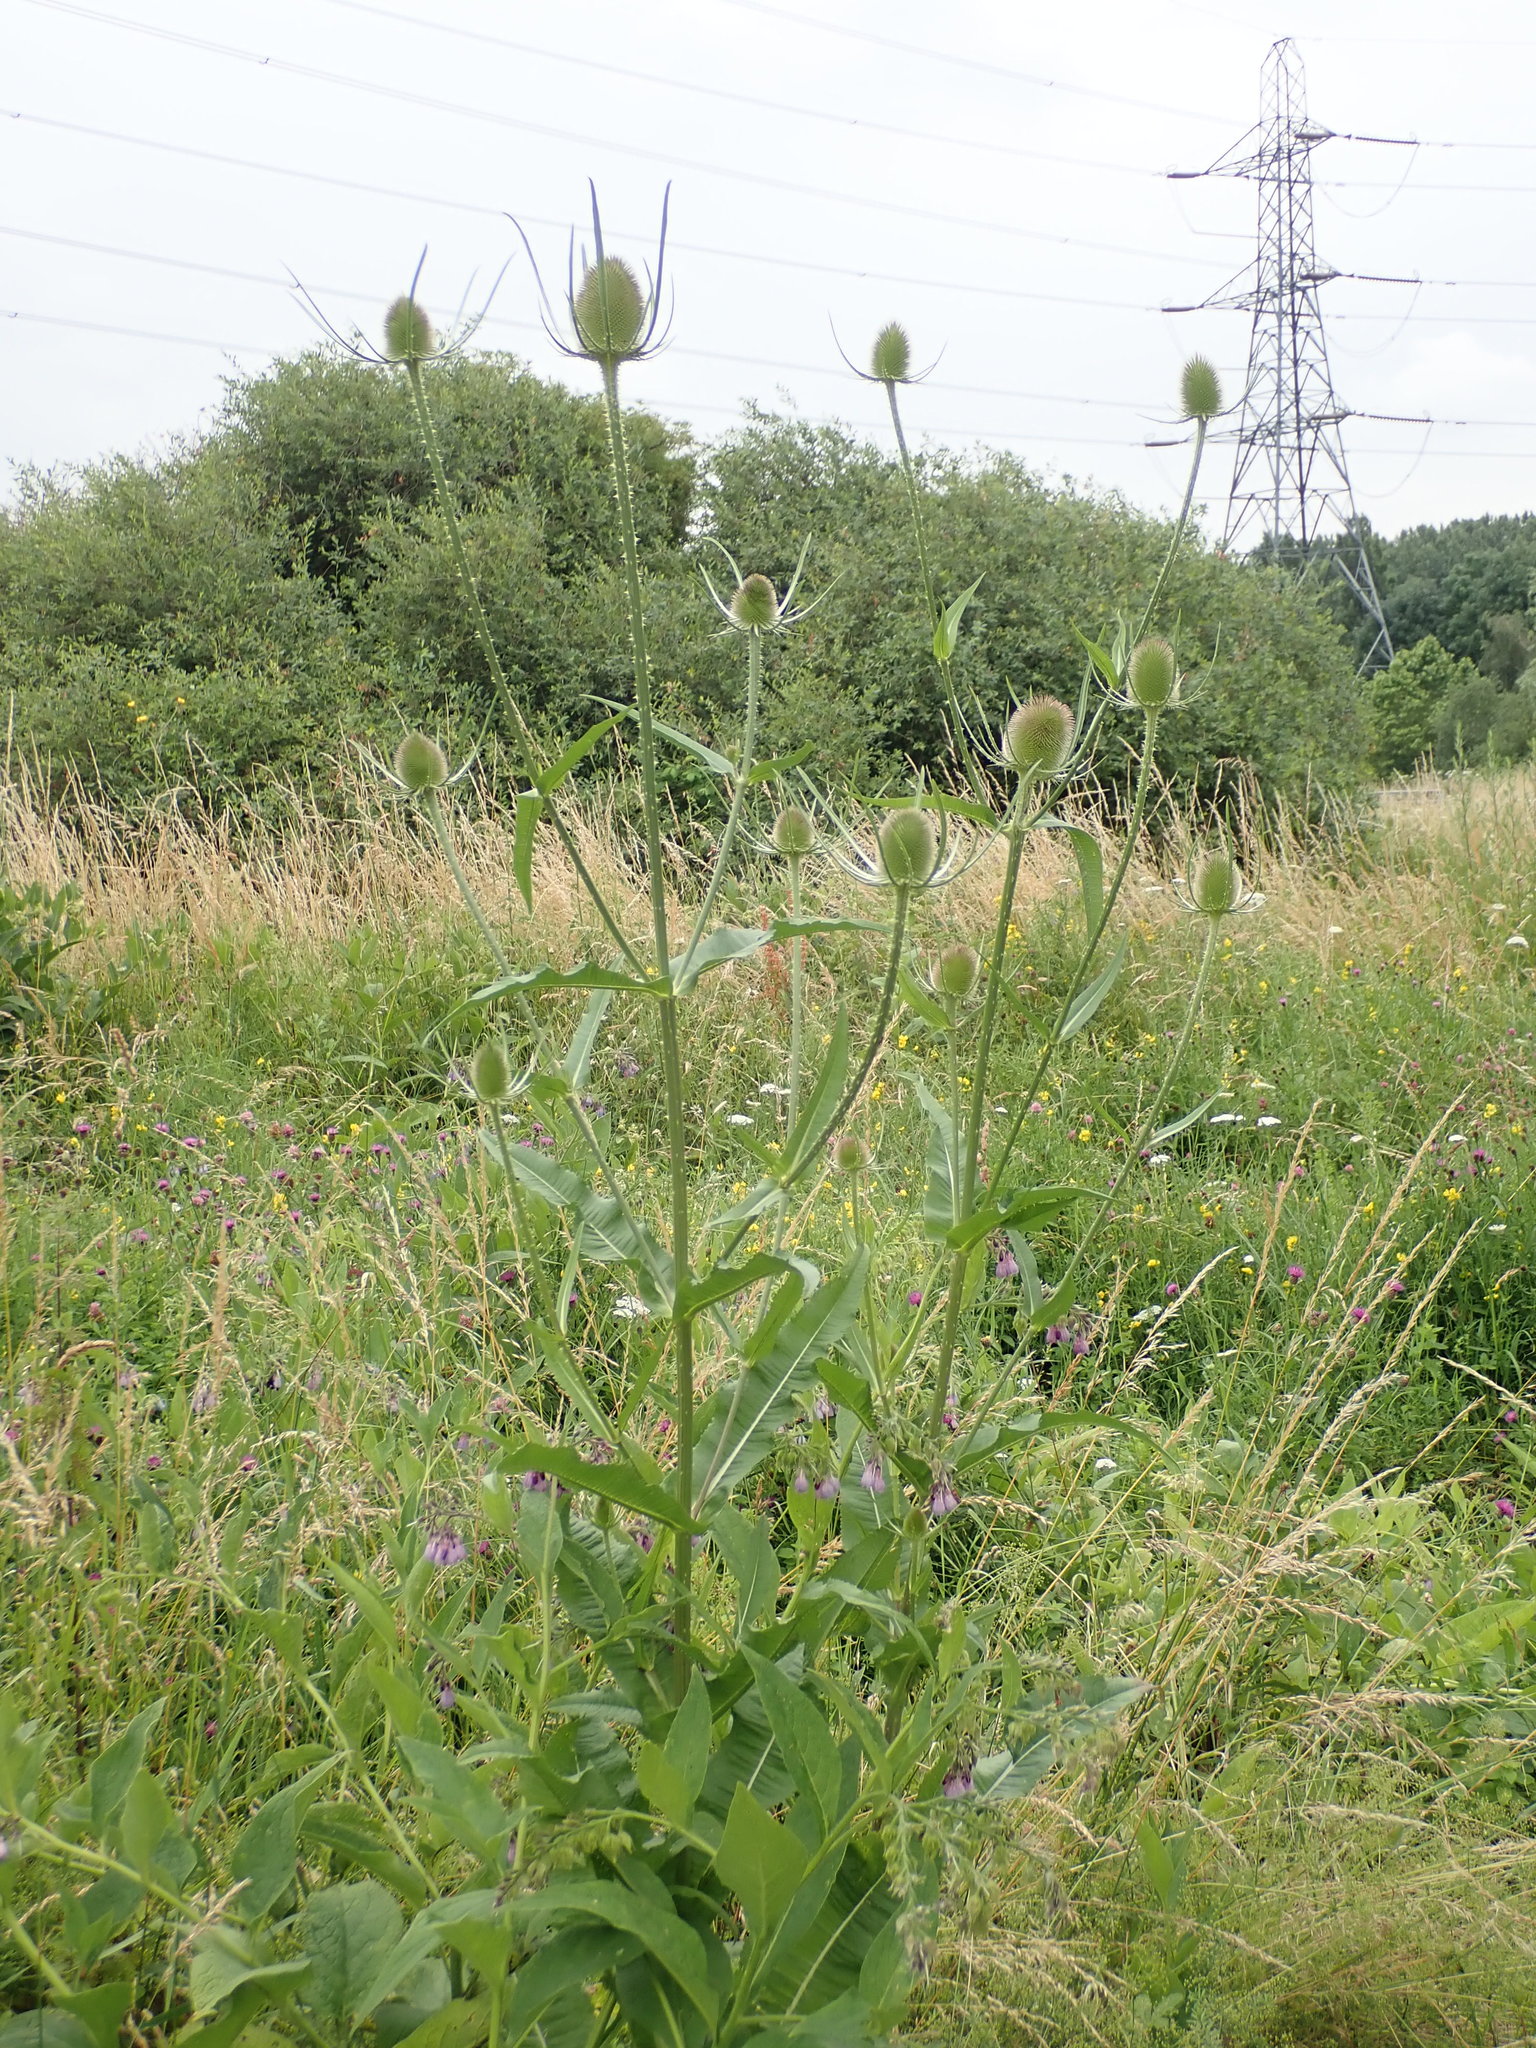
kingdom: Plantae
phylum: Tracheophyta
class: Magnoliopsida
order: Dipsacales
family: Caprifoliaceae
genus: Dipsacus
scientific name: Dipsacus fullonum
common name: Teasel
